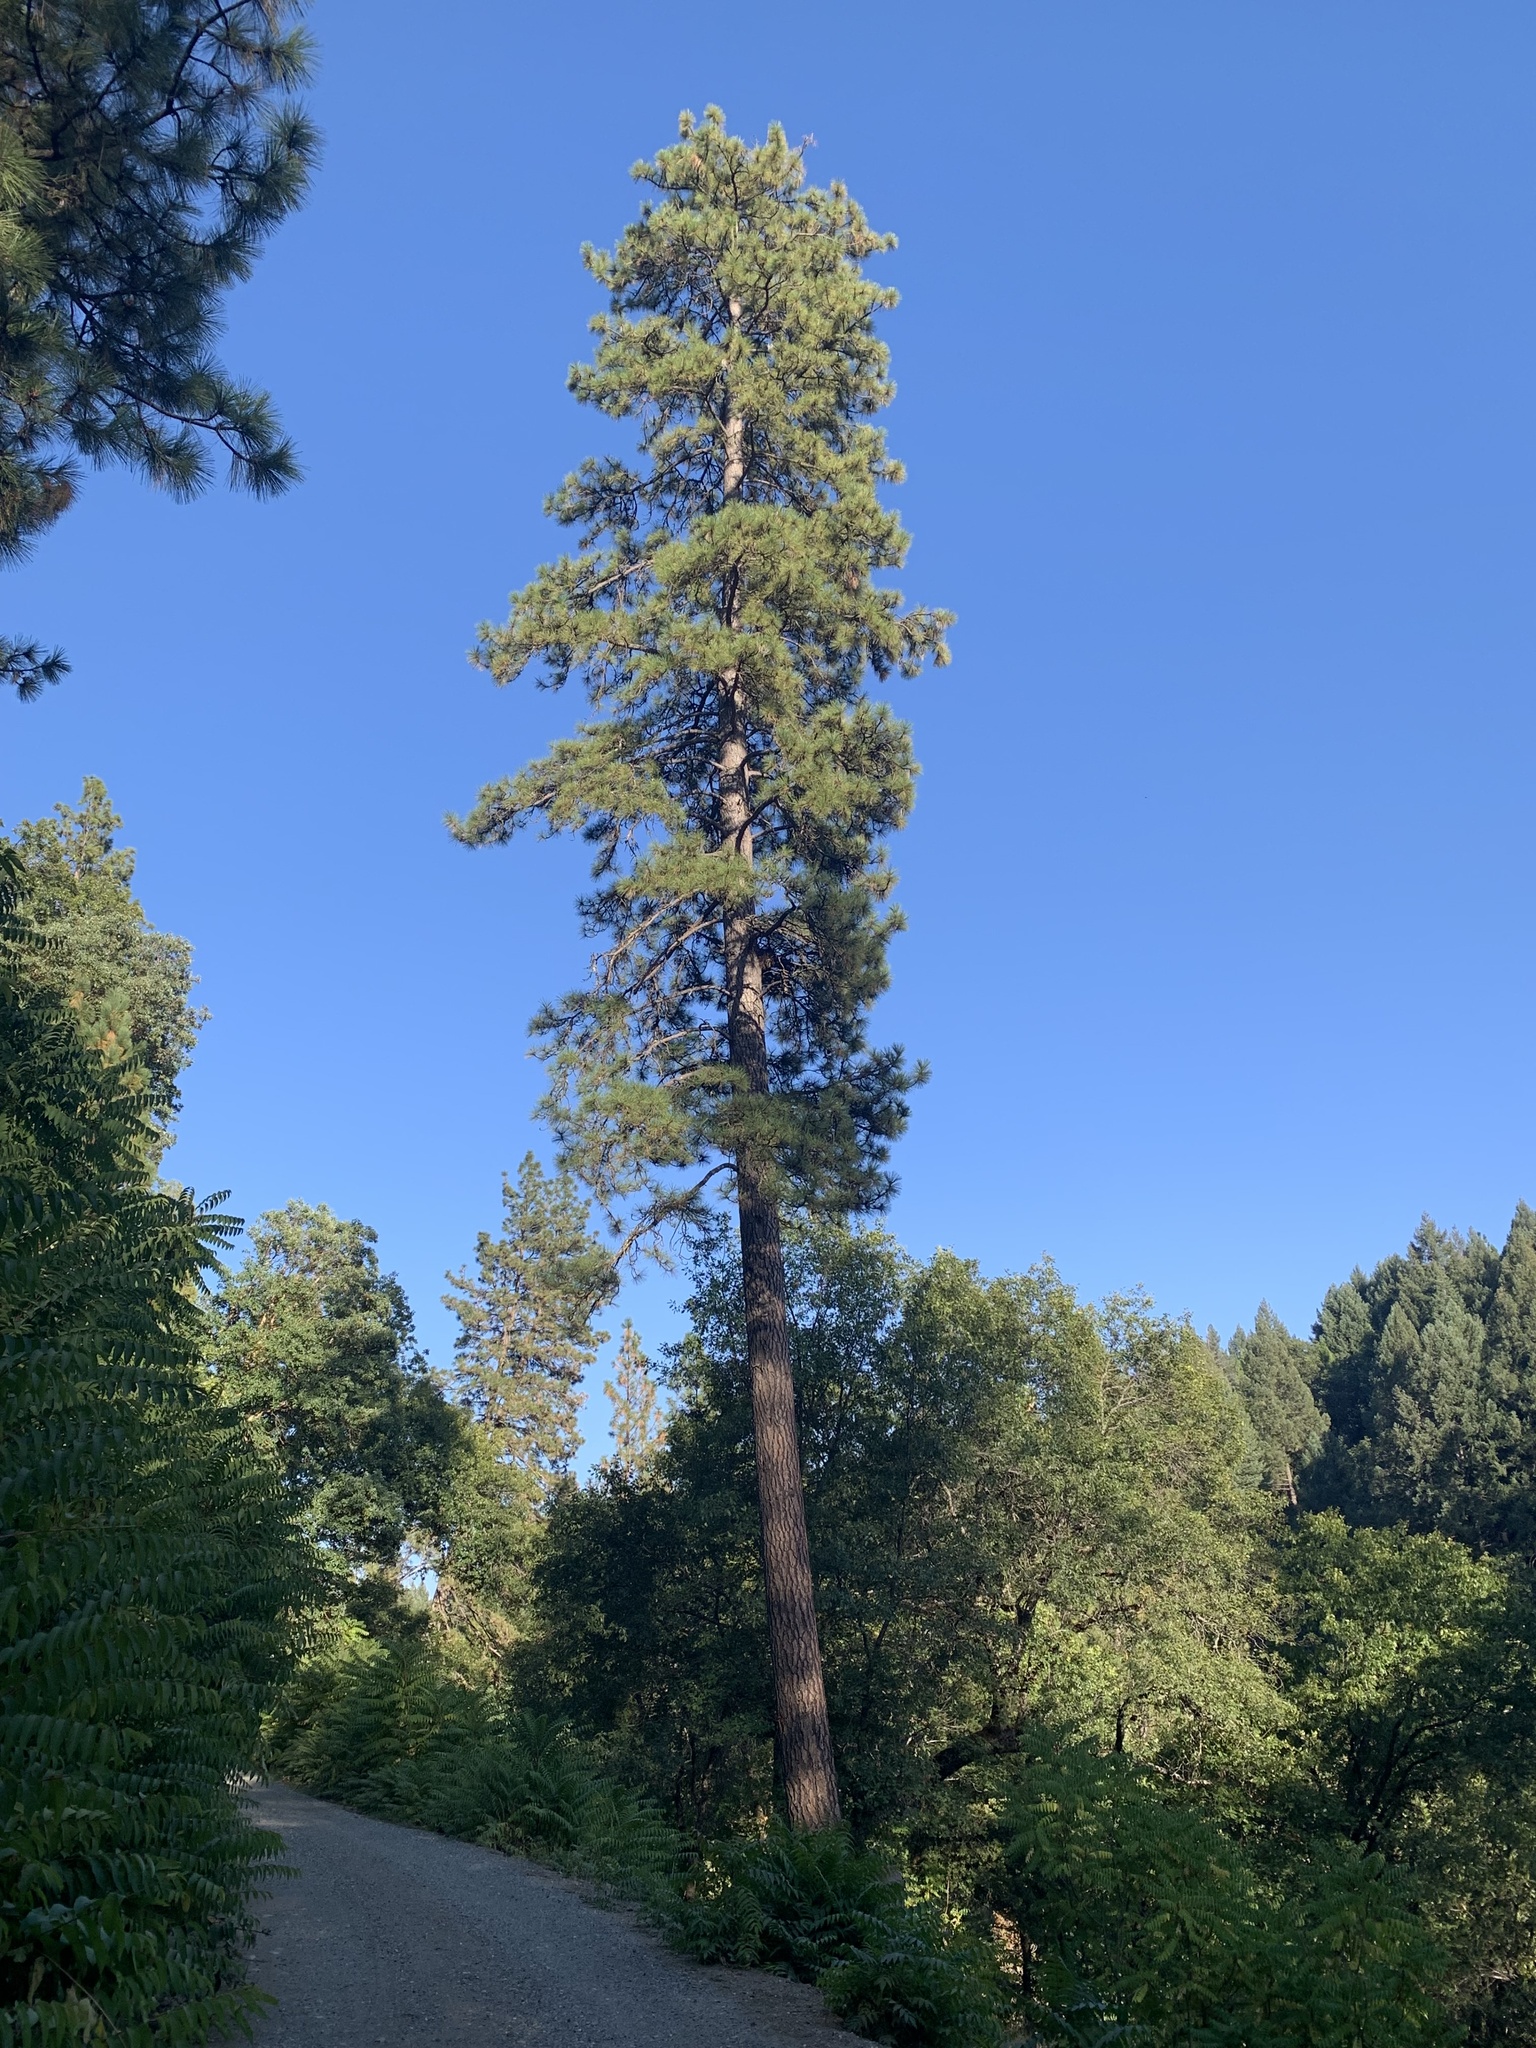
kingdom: Plantae
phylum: Tracheophyta
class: Pinopsida
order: Pinales
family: Pinaceae
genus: Pinus
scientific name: Pinus ponderosa
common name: Western yellow-pine
